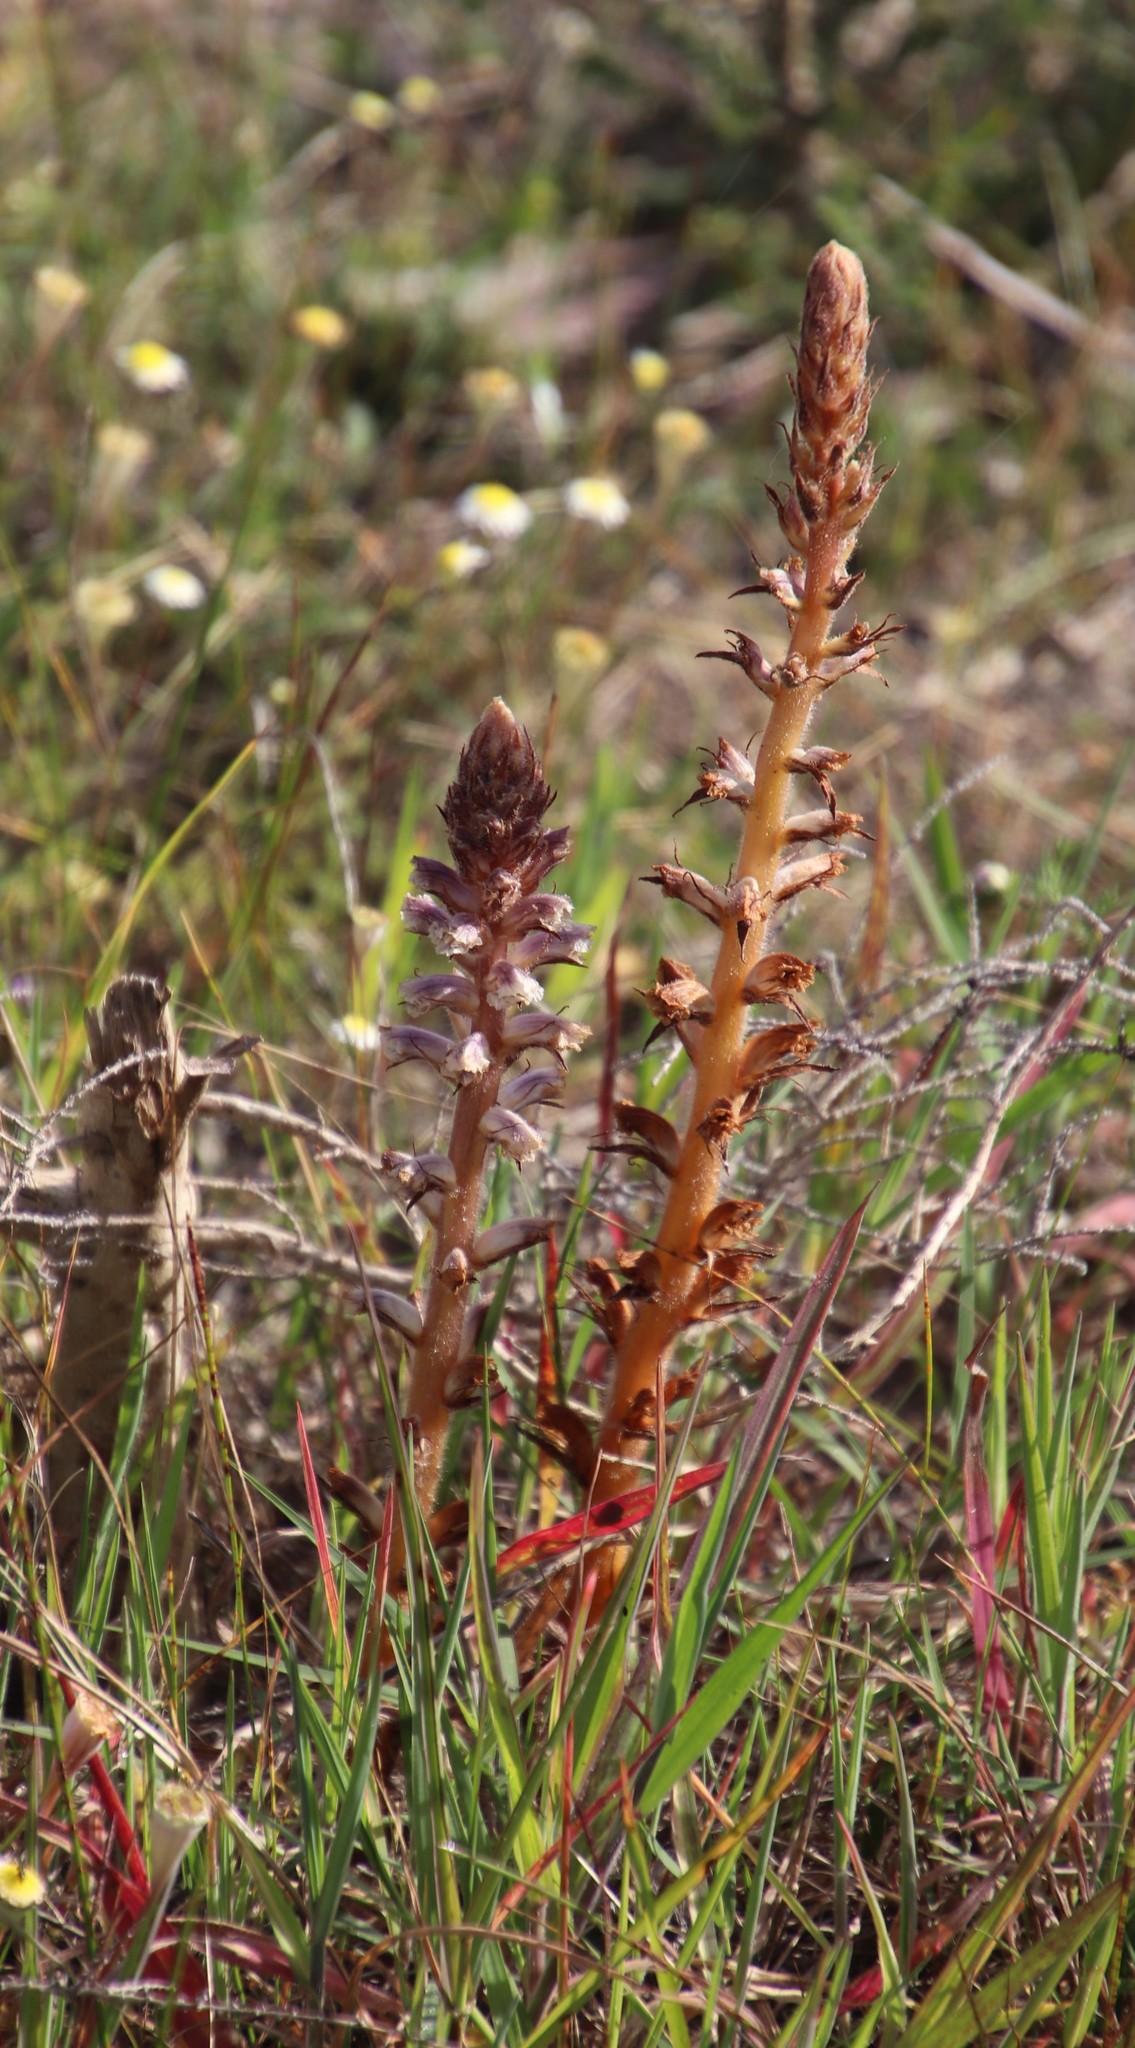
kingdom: Plantae
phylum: Tracheophyta
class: Magnoliopsida
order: Lamiales
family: Orobanchaceae
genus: Orobanche
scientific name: Orobanche minor
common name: Common broomrape
